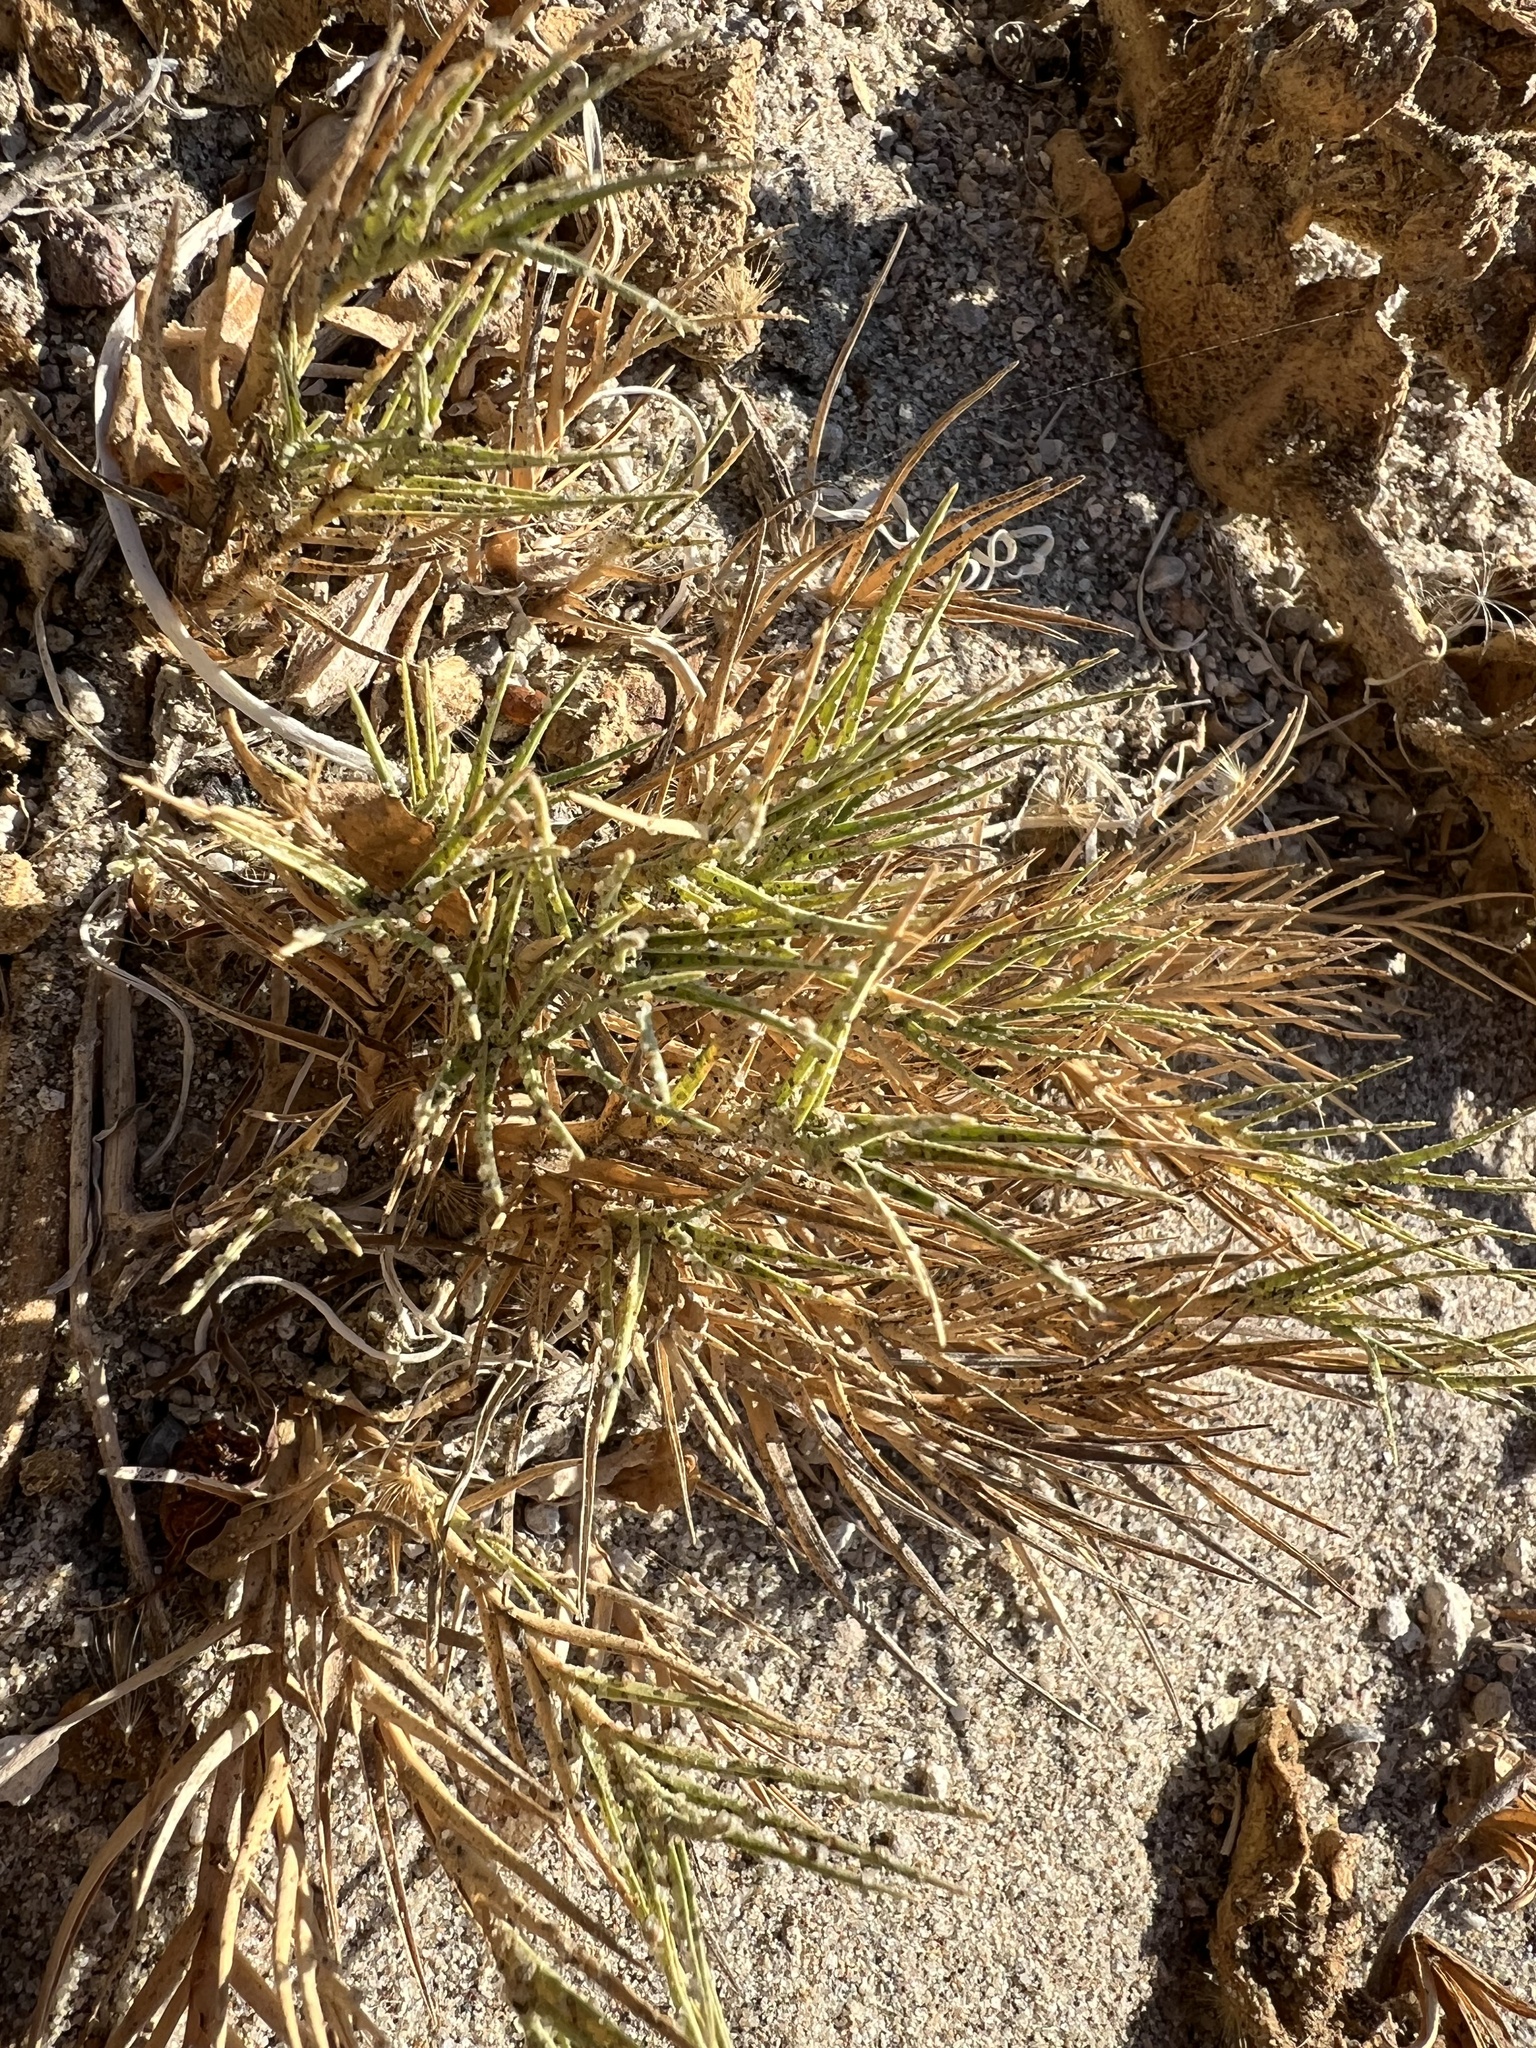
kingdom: Plantae
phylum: Tracheophyta
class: Liliopsida
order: Poales
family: Poaceae
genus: Distichlis
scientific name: Distichlis spicata
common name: Saltgrass
